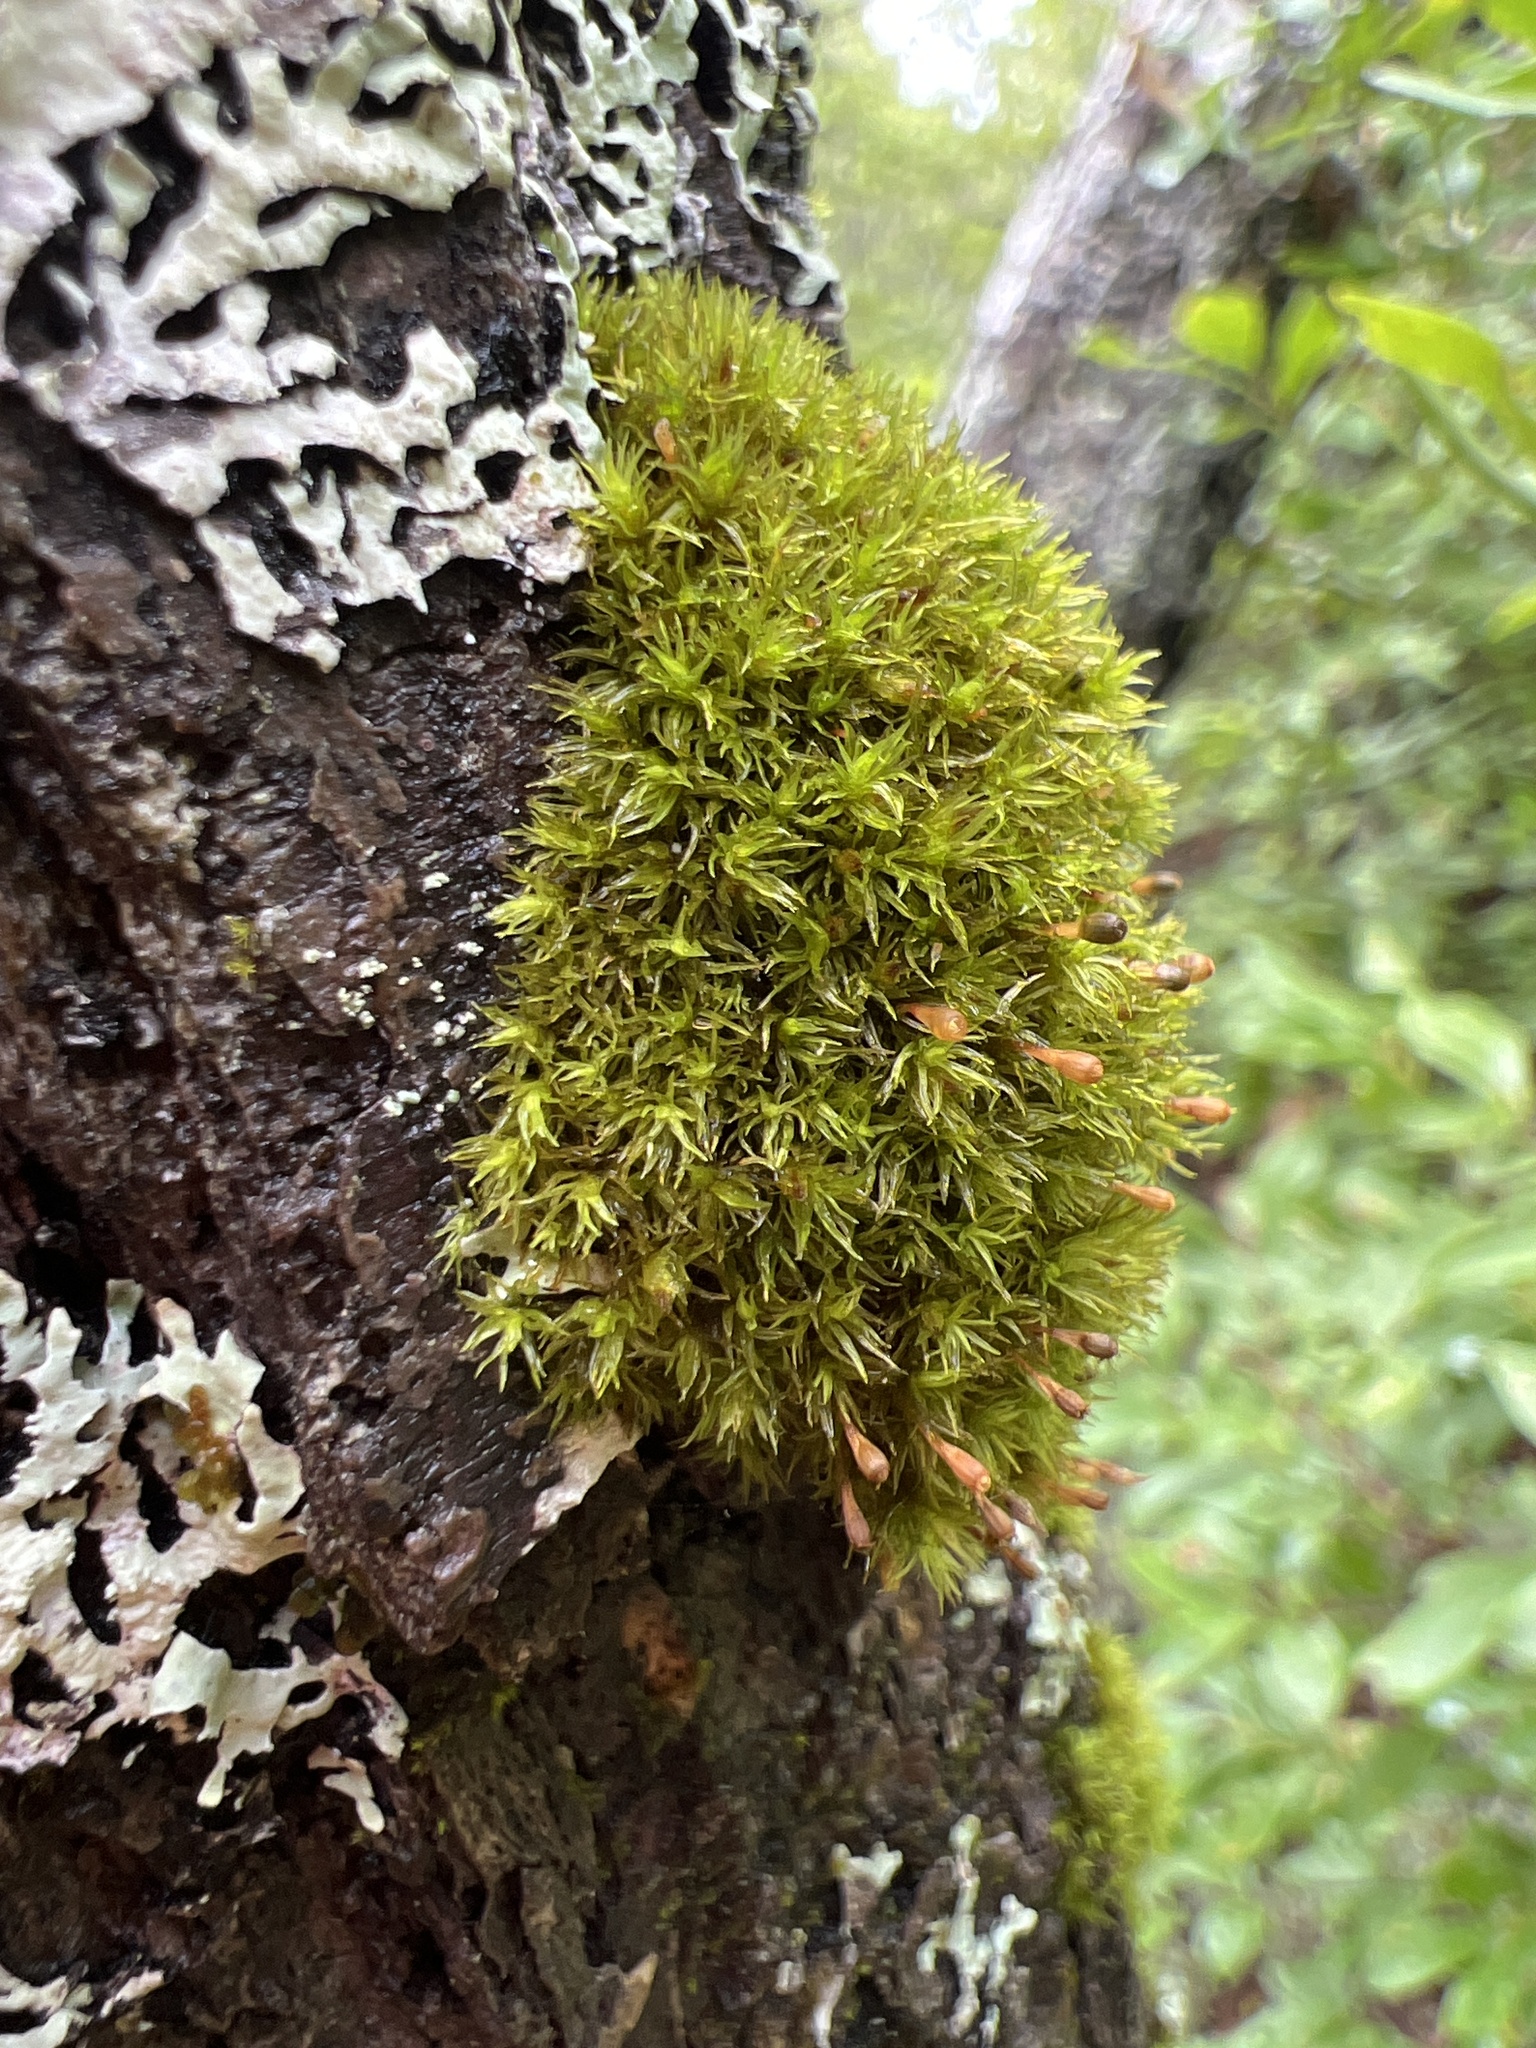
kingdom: Plantae
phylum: Bryophyta
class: Bryopsida
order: Orthotrichales
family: Orthotrichaceae
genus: Ulota
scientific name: Ulota coarctata
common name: Club pincushion moss
